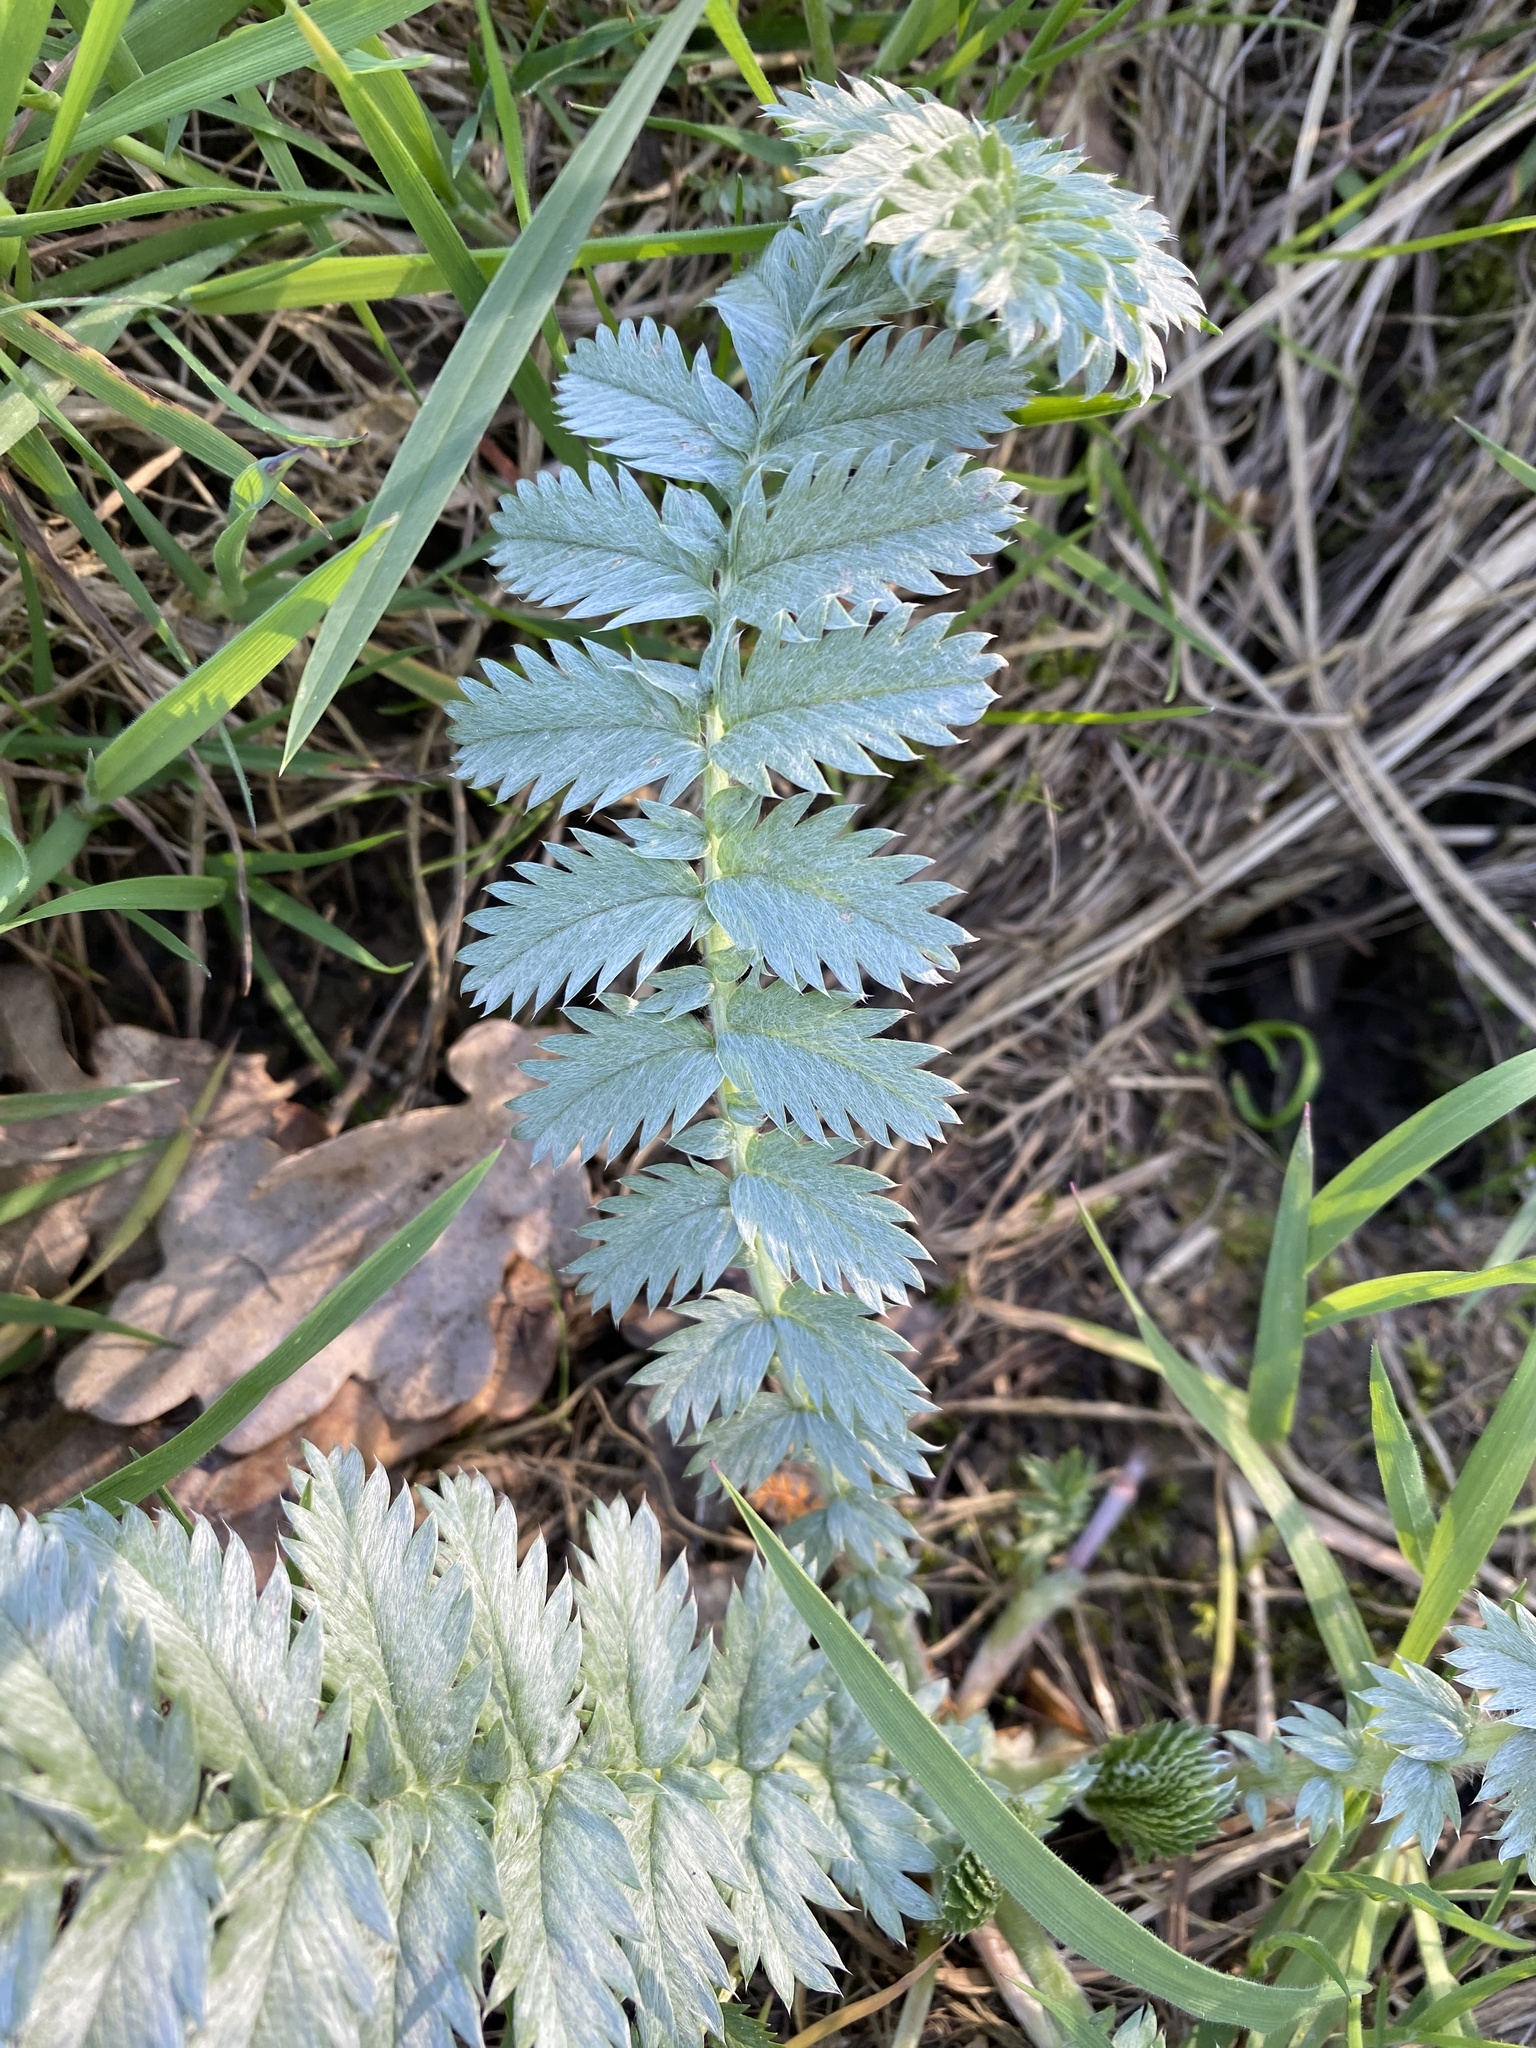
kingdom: Plantae
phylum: Tracheophyta
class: Magnoliopsida
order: Rosales
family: Rosaceae
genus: Argentina
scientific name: Argentina anserina
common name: Common silverweed
